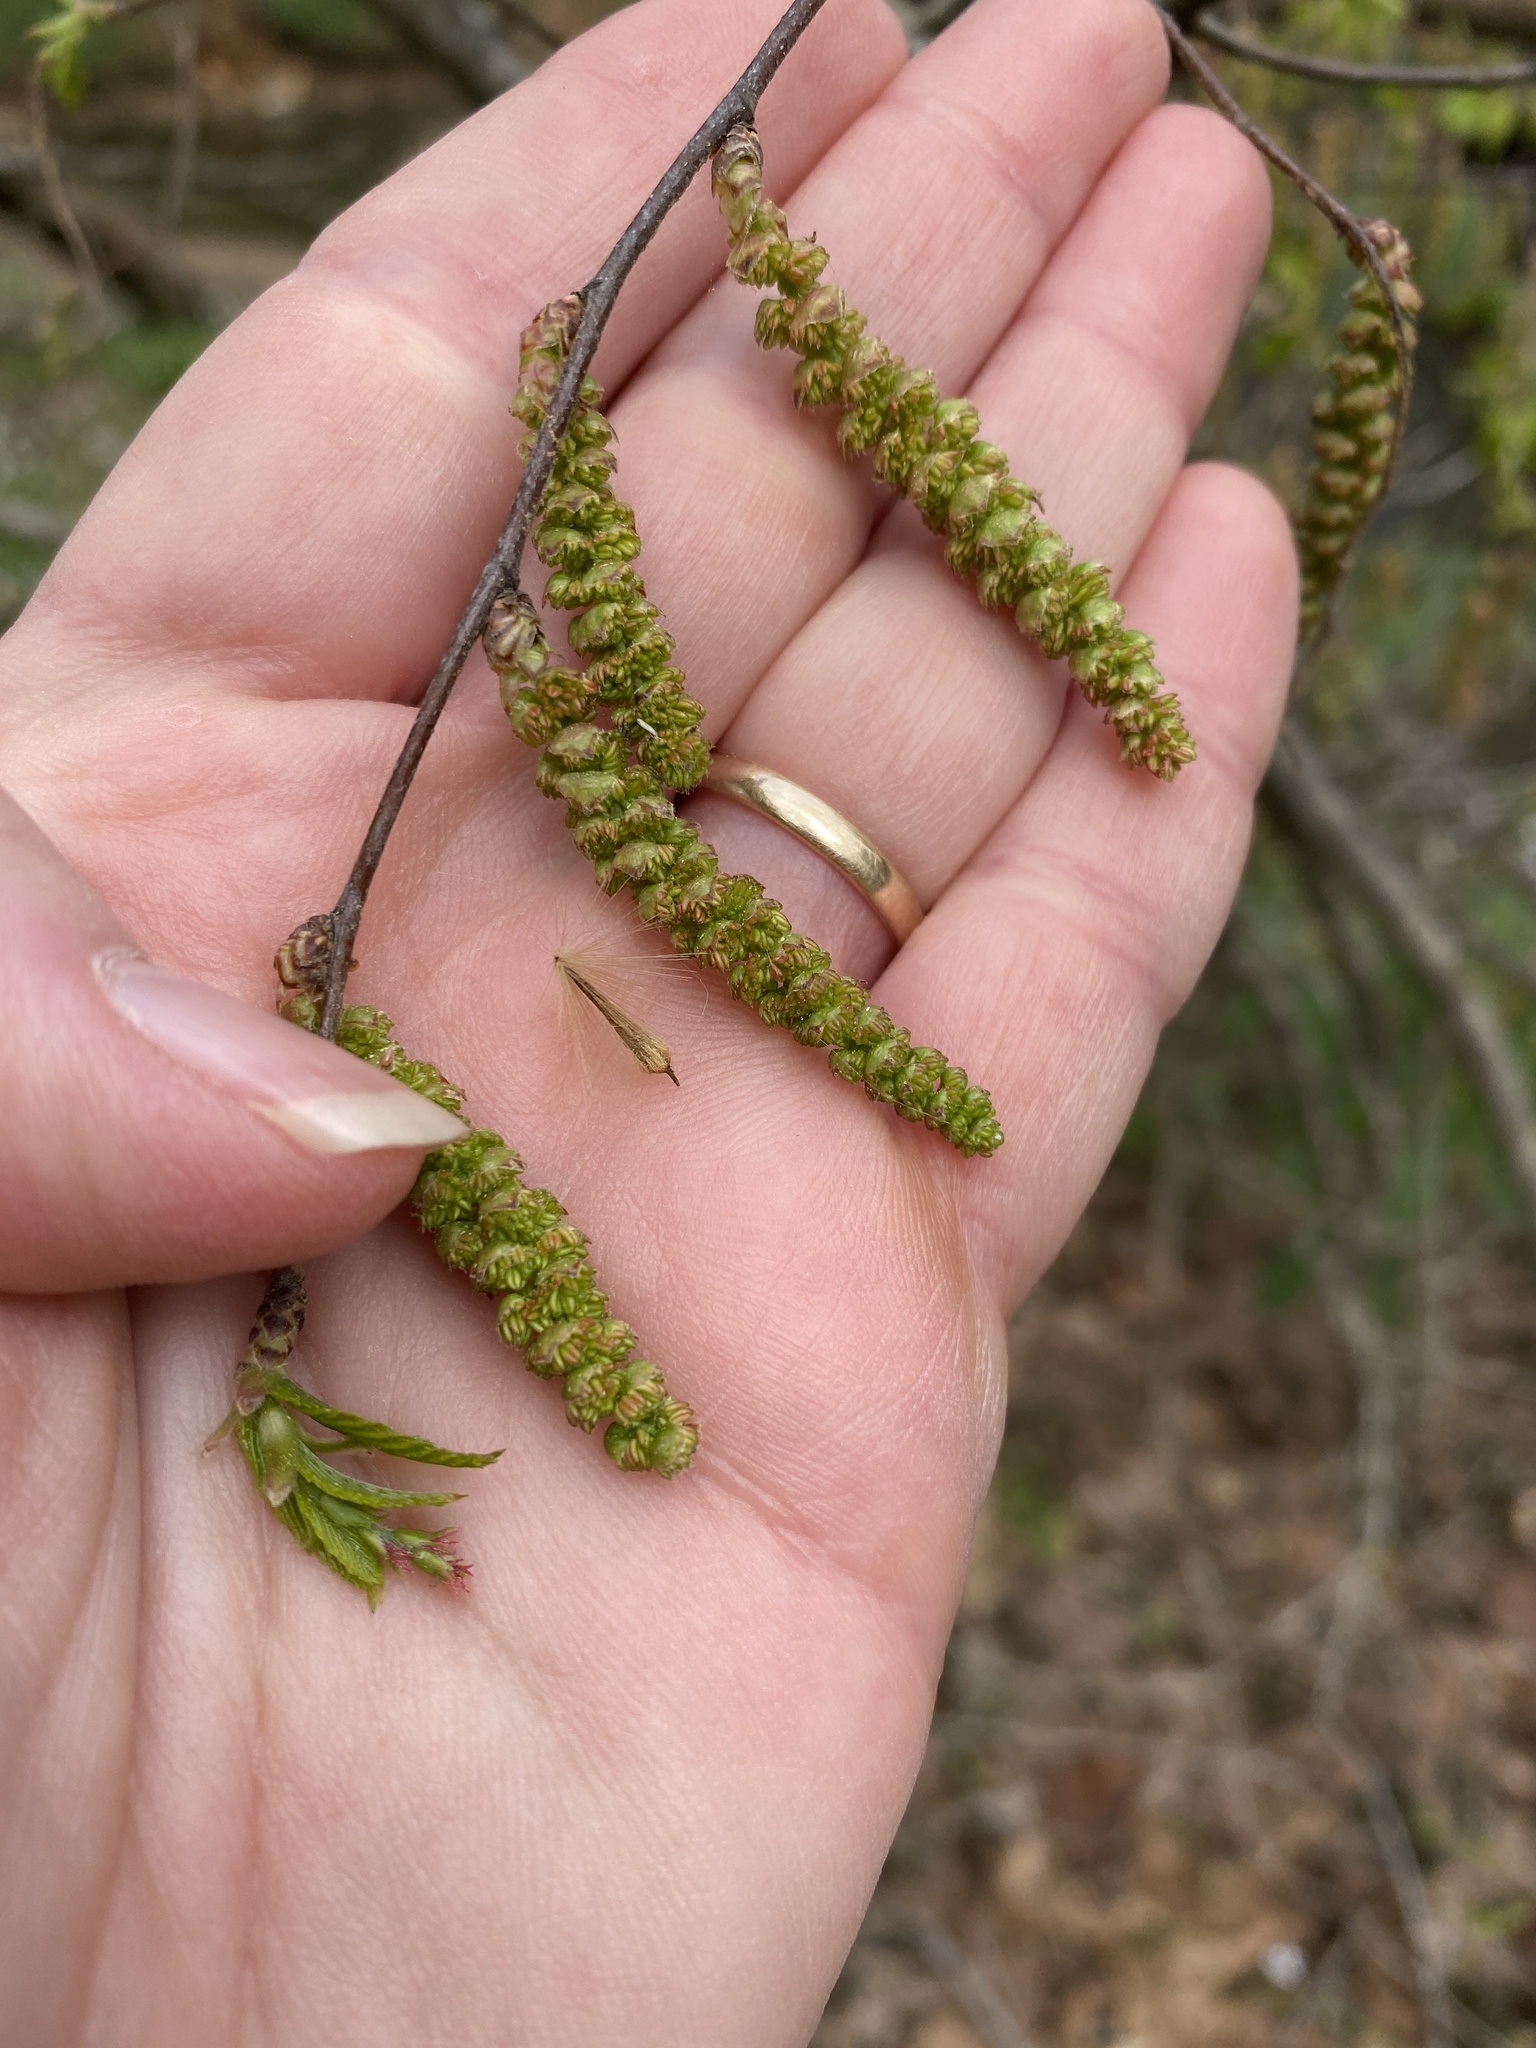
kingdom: Plantae
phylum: Tracheophyta
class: Magnoliopsida
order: Fagales
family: Betulaceae
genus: Carpinus
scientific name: Carpinus caroliniana
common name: American hornbeam
